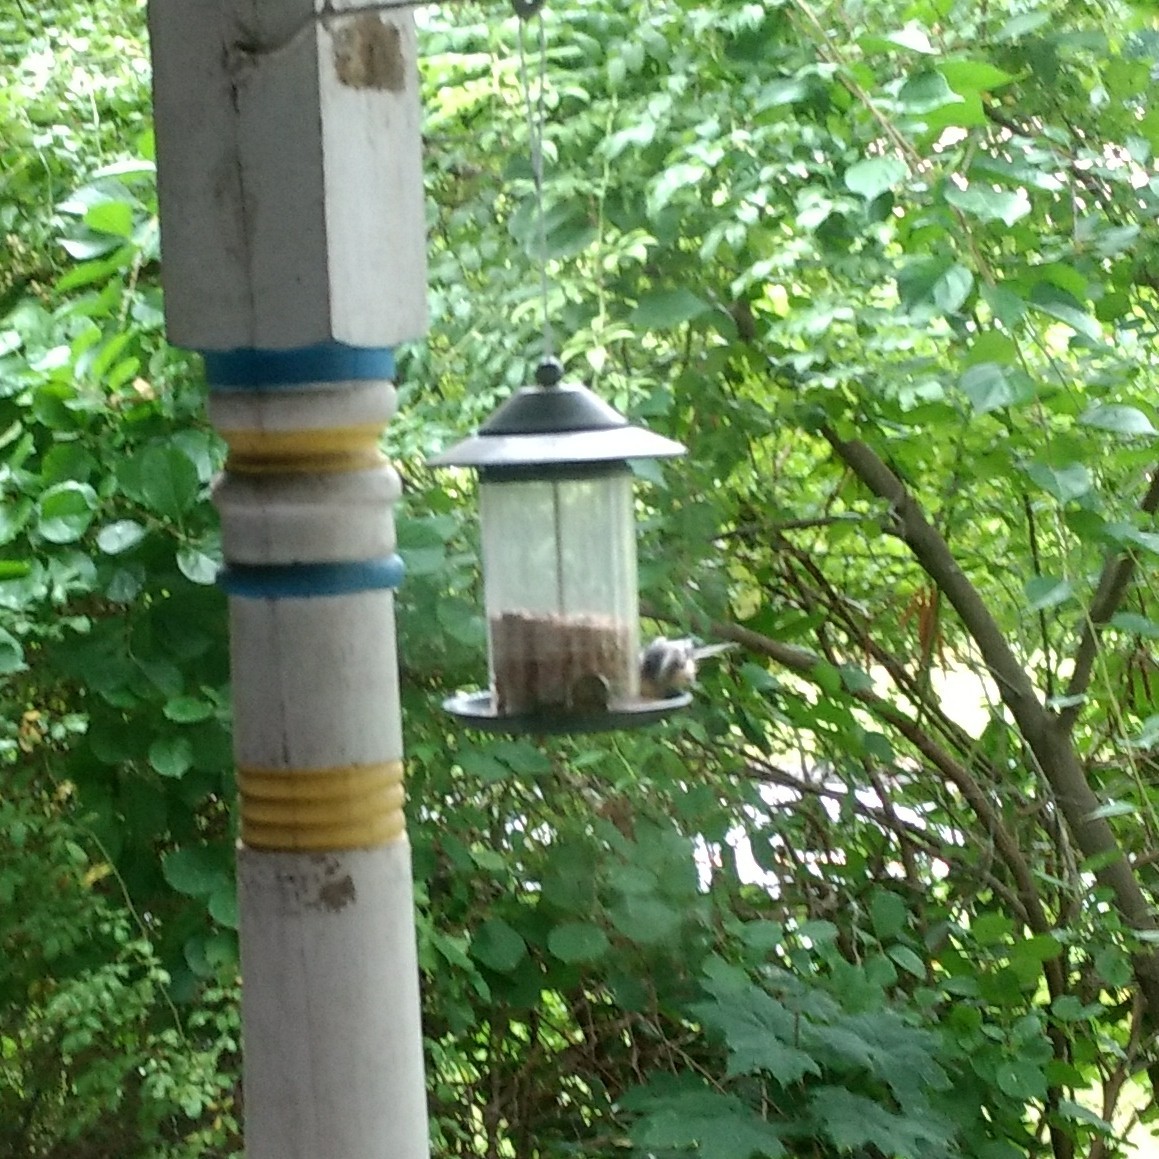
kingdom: Animalia
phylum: Chordata
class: Aves
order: Passeriformes
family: Paridae
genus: Poecile
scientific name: Poecile atricapillus
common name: Black-capped chickadee
